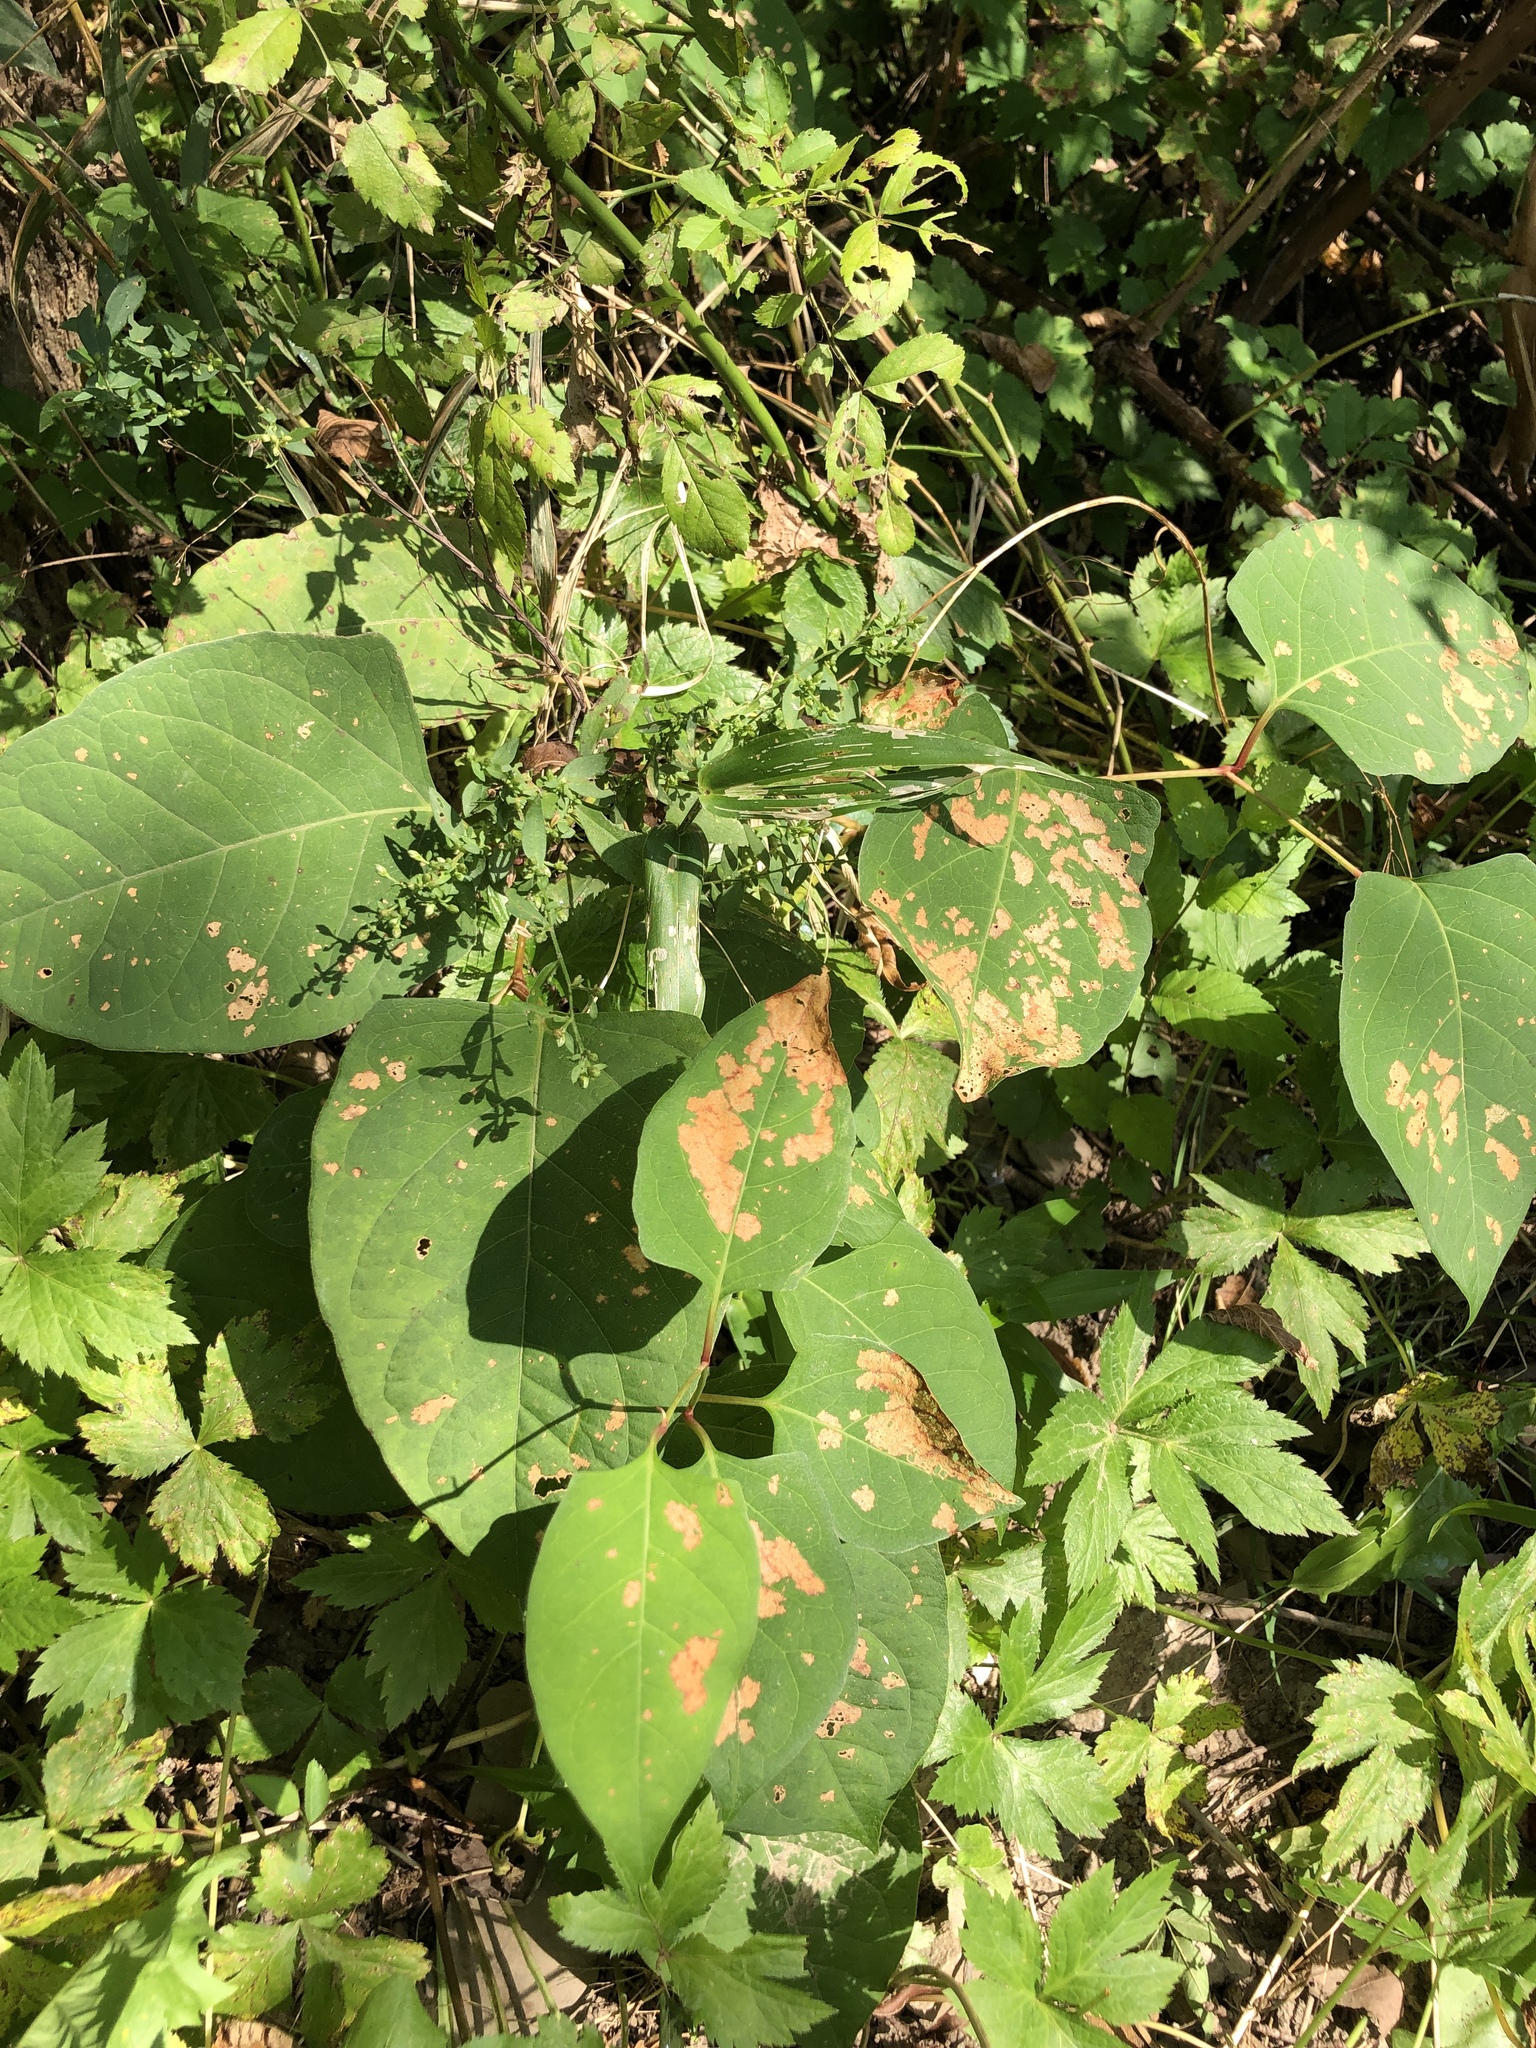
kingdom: Plantae
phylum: Tracheophyta
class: Magnoliopsida
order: Caryophyllales
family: Polygonaceae
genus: Reynoutria
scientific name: Reynoutria japonica
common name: Japanese knotweed
